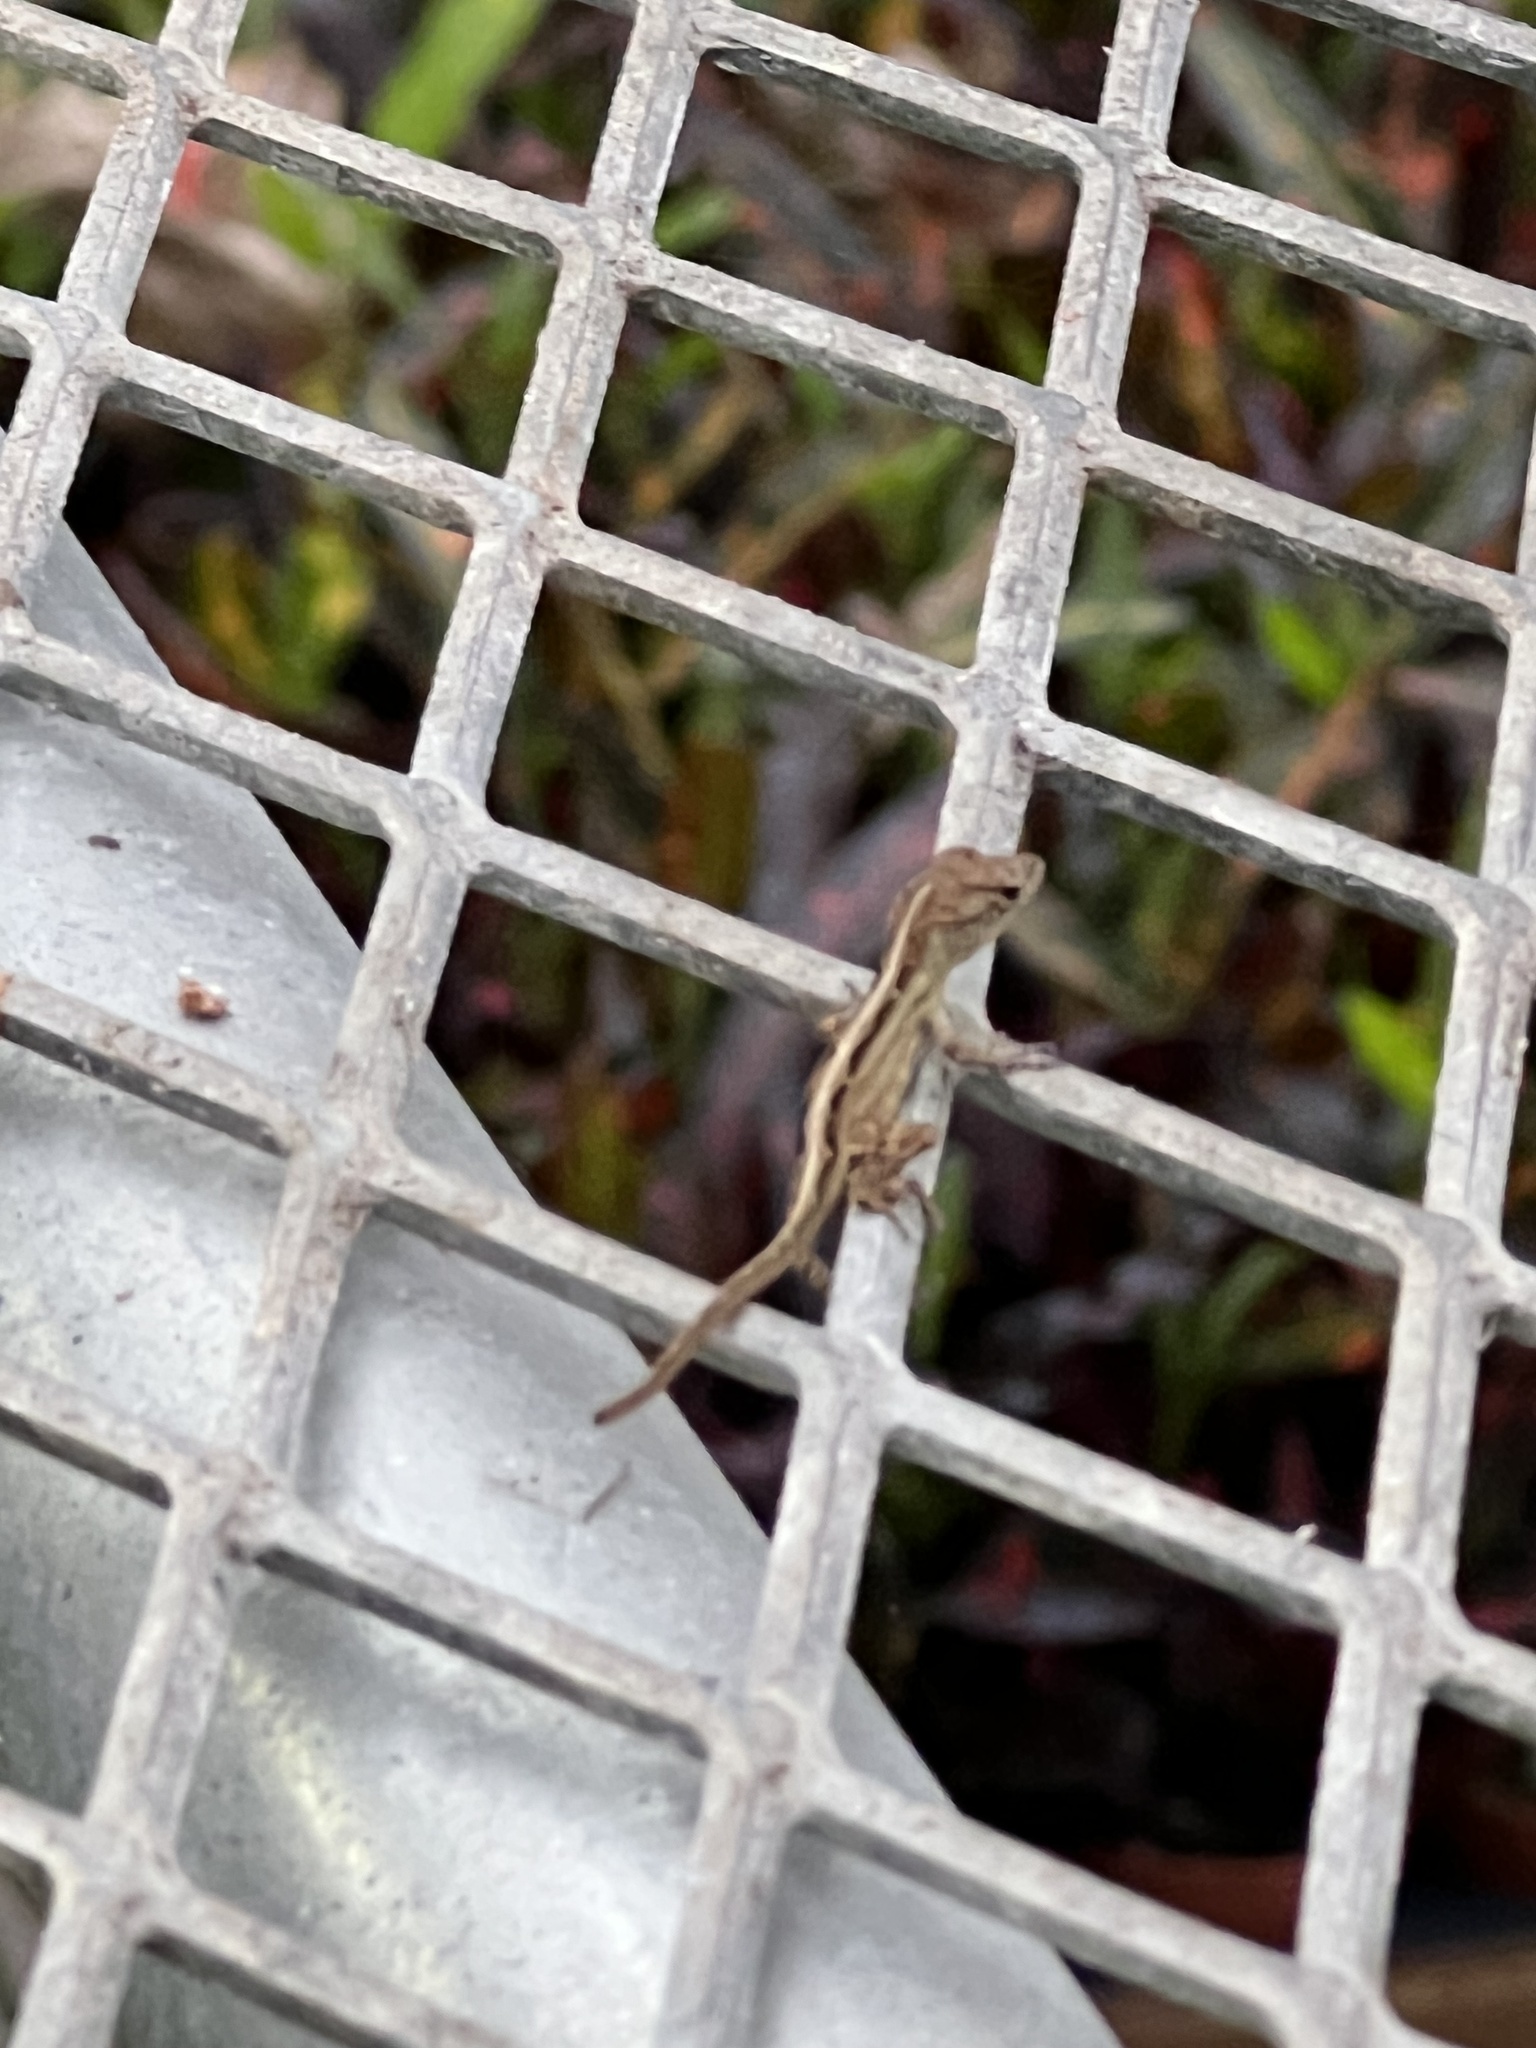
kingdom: Animalia
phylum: Chordata
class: Squamata
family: Dactyloidae
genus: Anolis
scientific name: Anolis sagrei
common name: Brown anole
